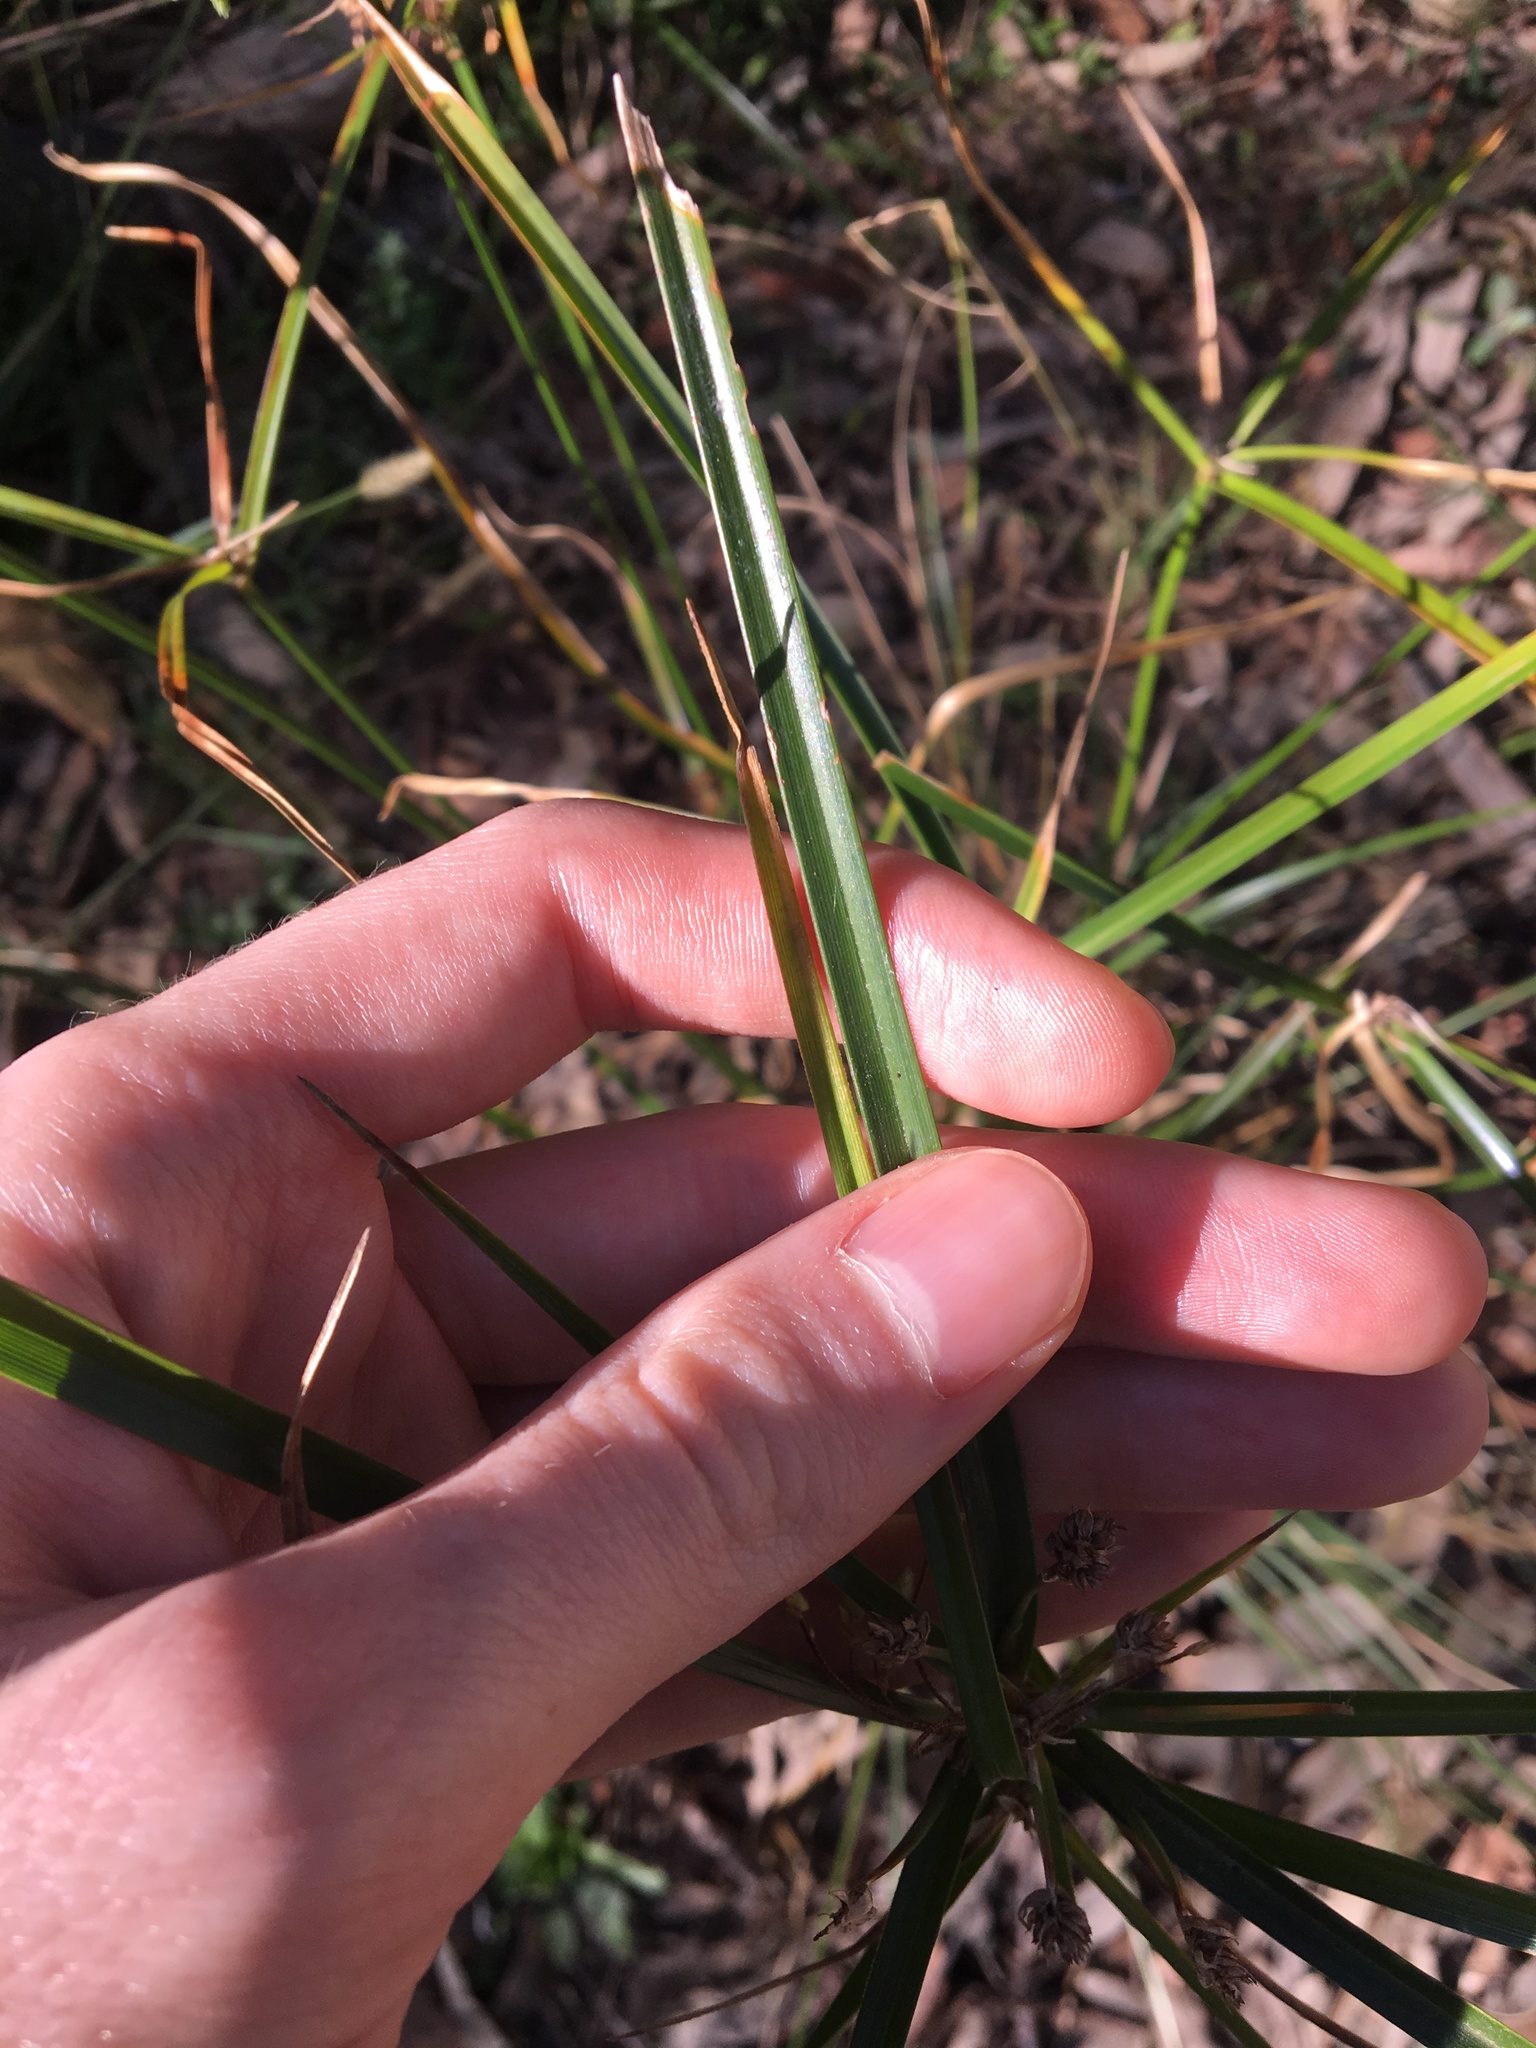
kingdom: Plantae
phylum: Tracheophyta
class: Liliopsida
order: Poales
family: Cyperaceae
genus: Cyperus
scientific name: Cyperus eragrostis
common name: Tall flatsedge
